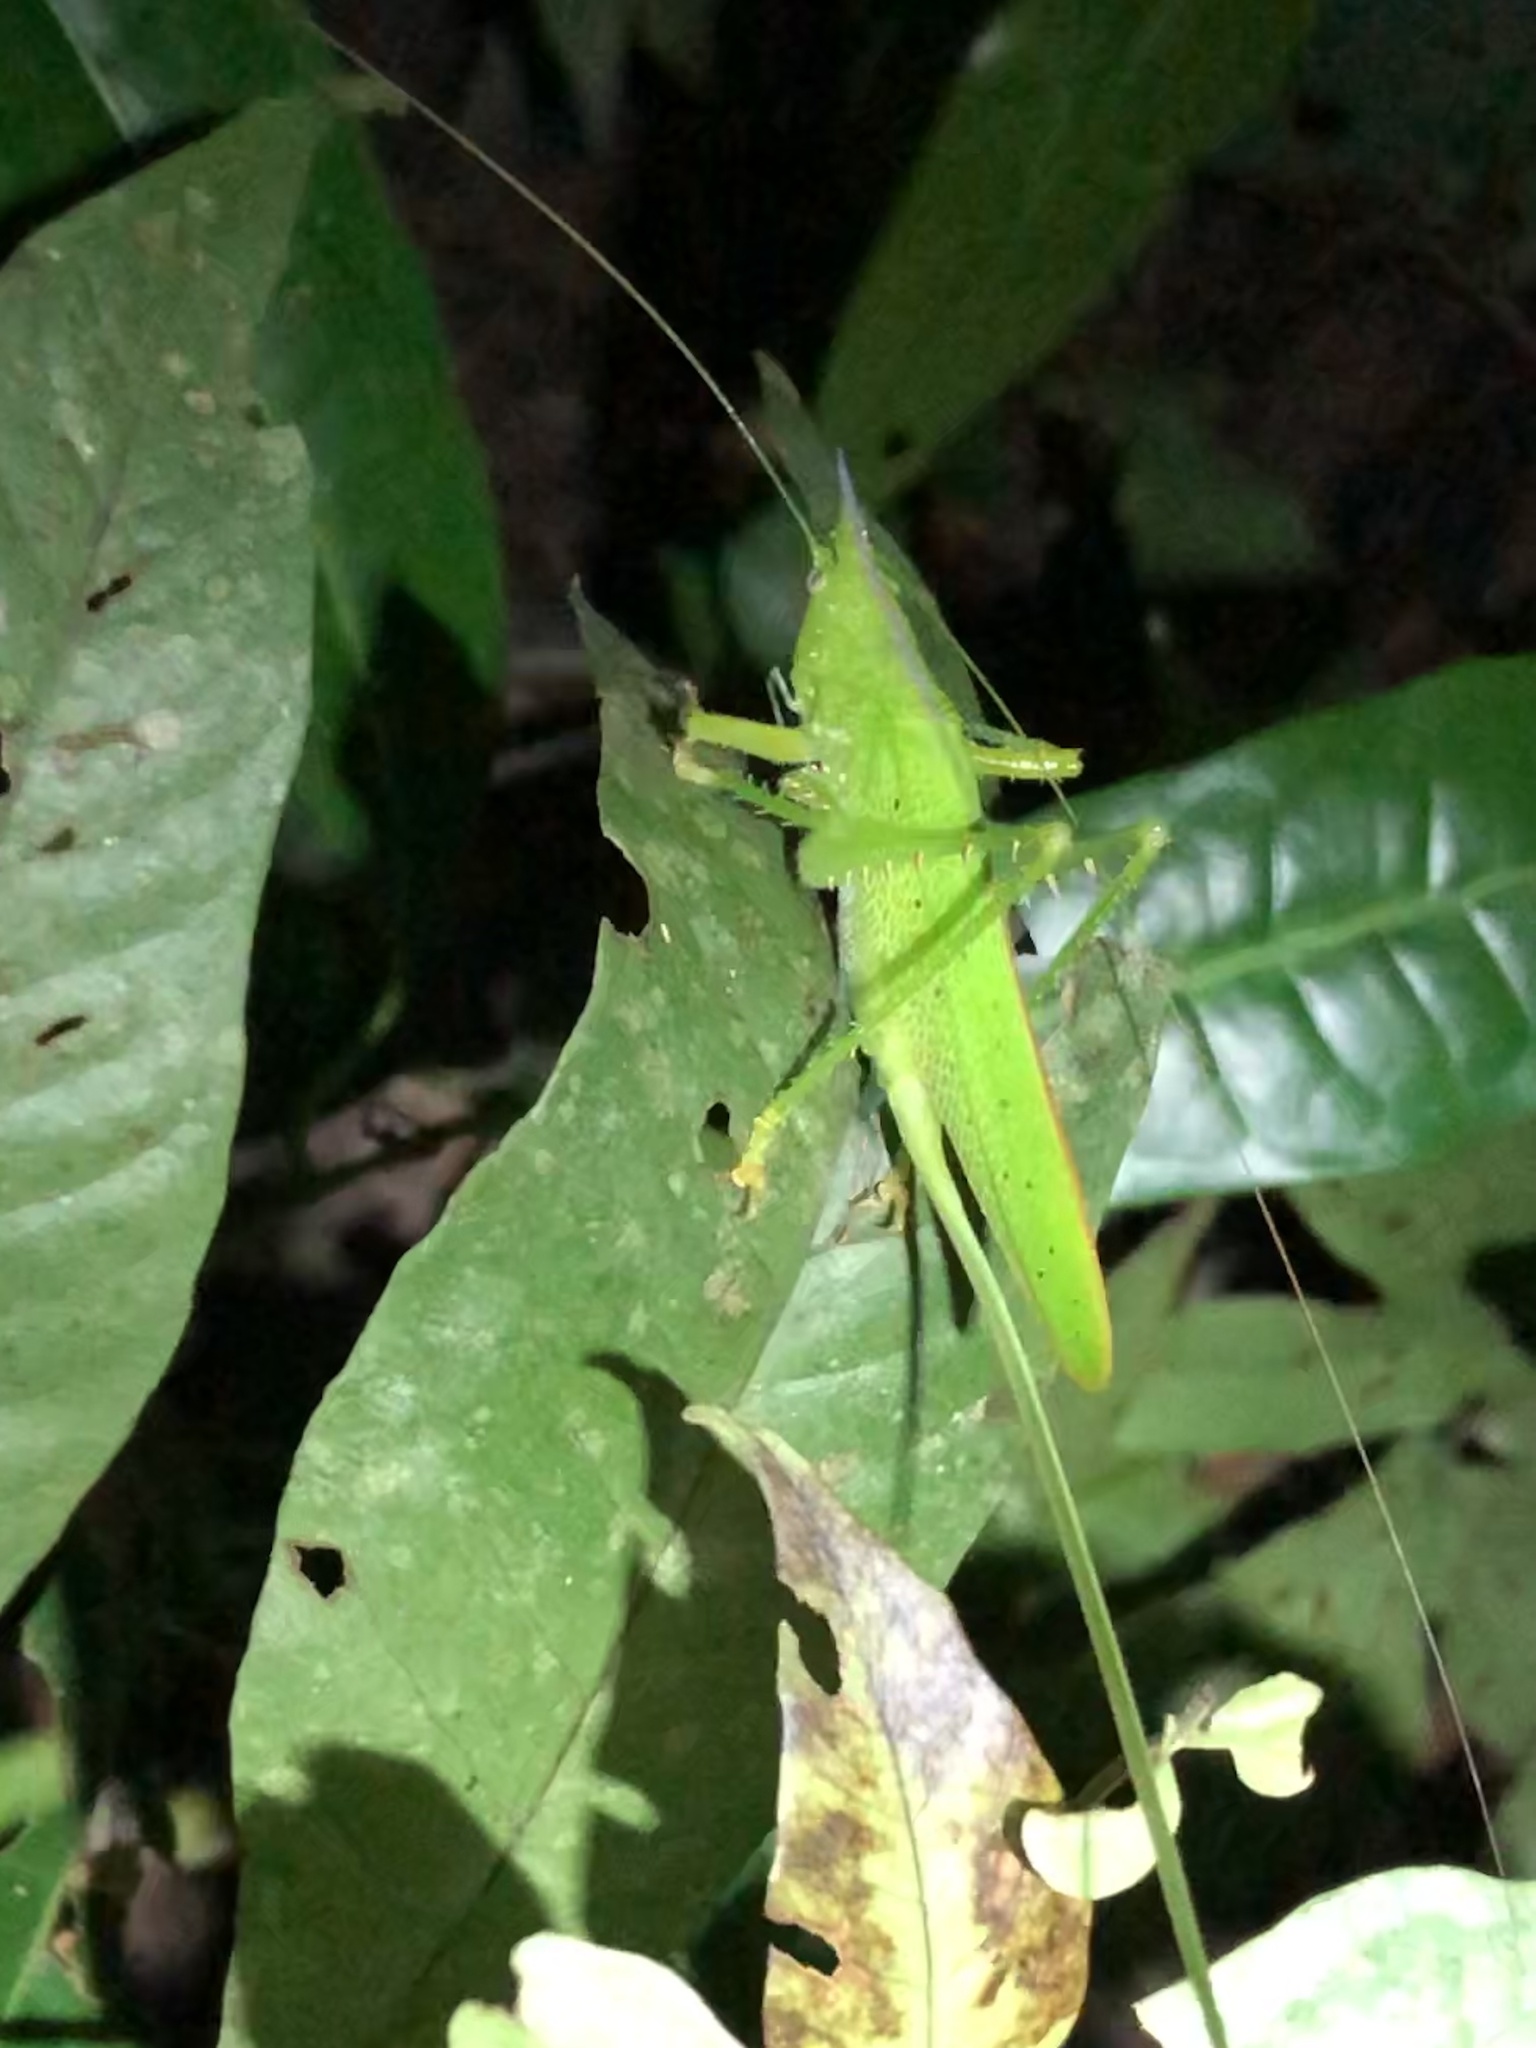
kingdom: Animalia
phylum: Arthropoda
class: Insecta
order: Orthoptera
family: Tettigoniidae
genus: Copiphora
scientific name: Copiphora gracilis
